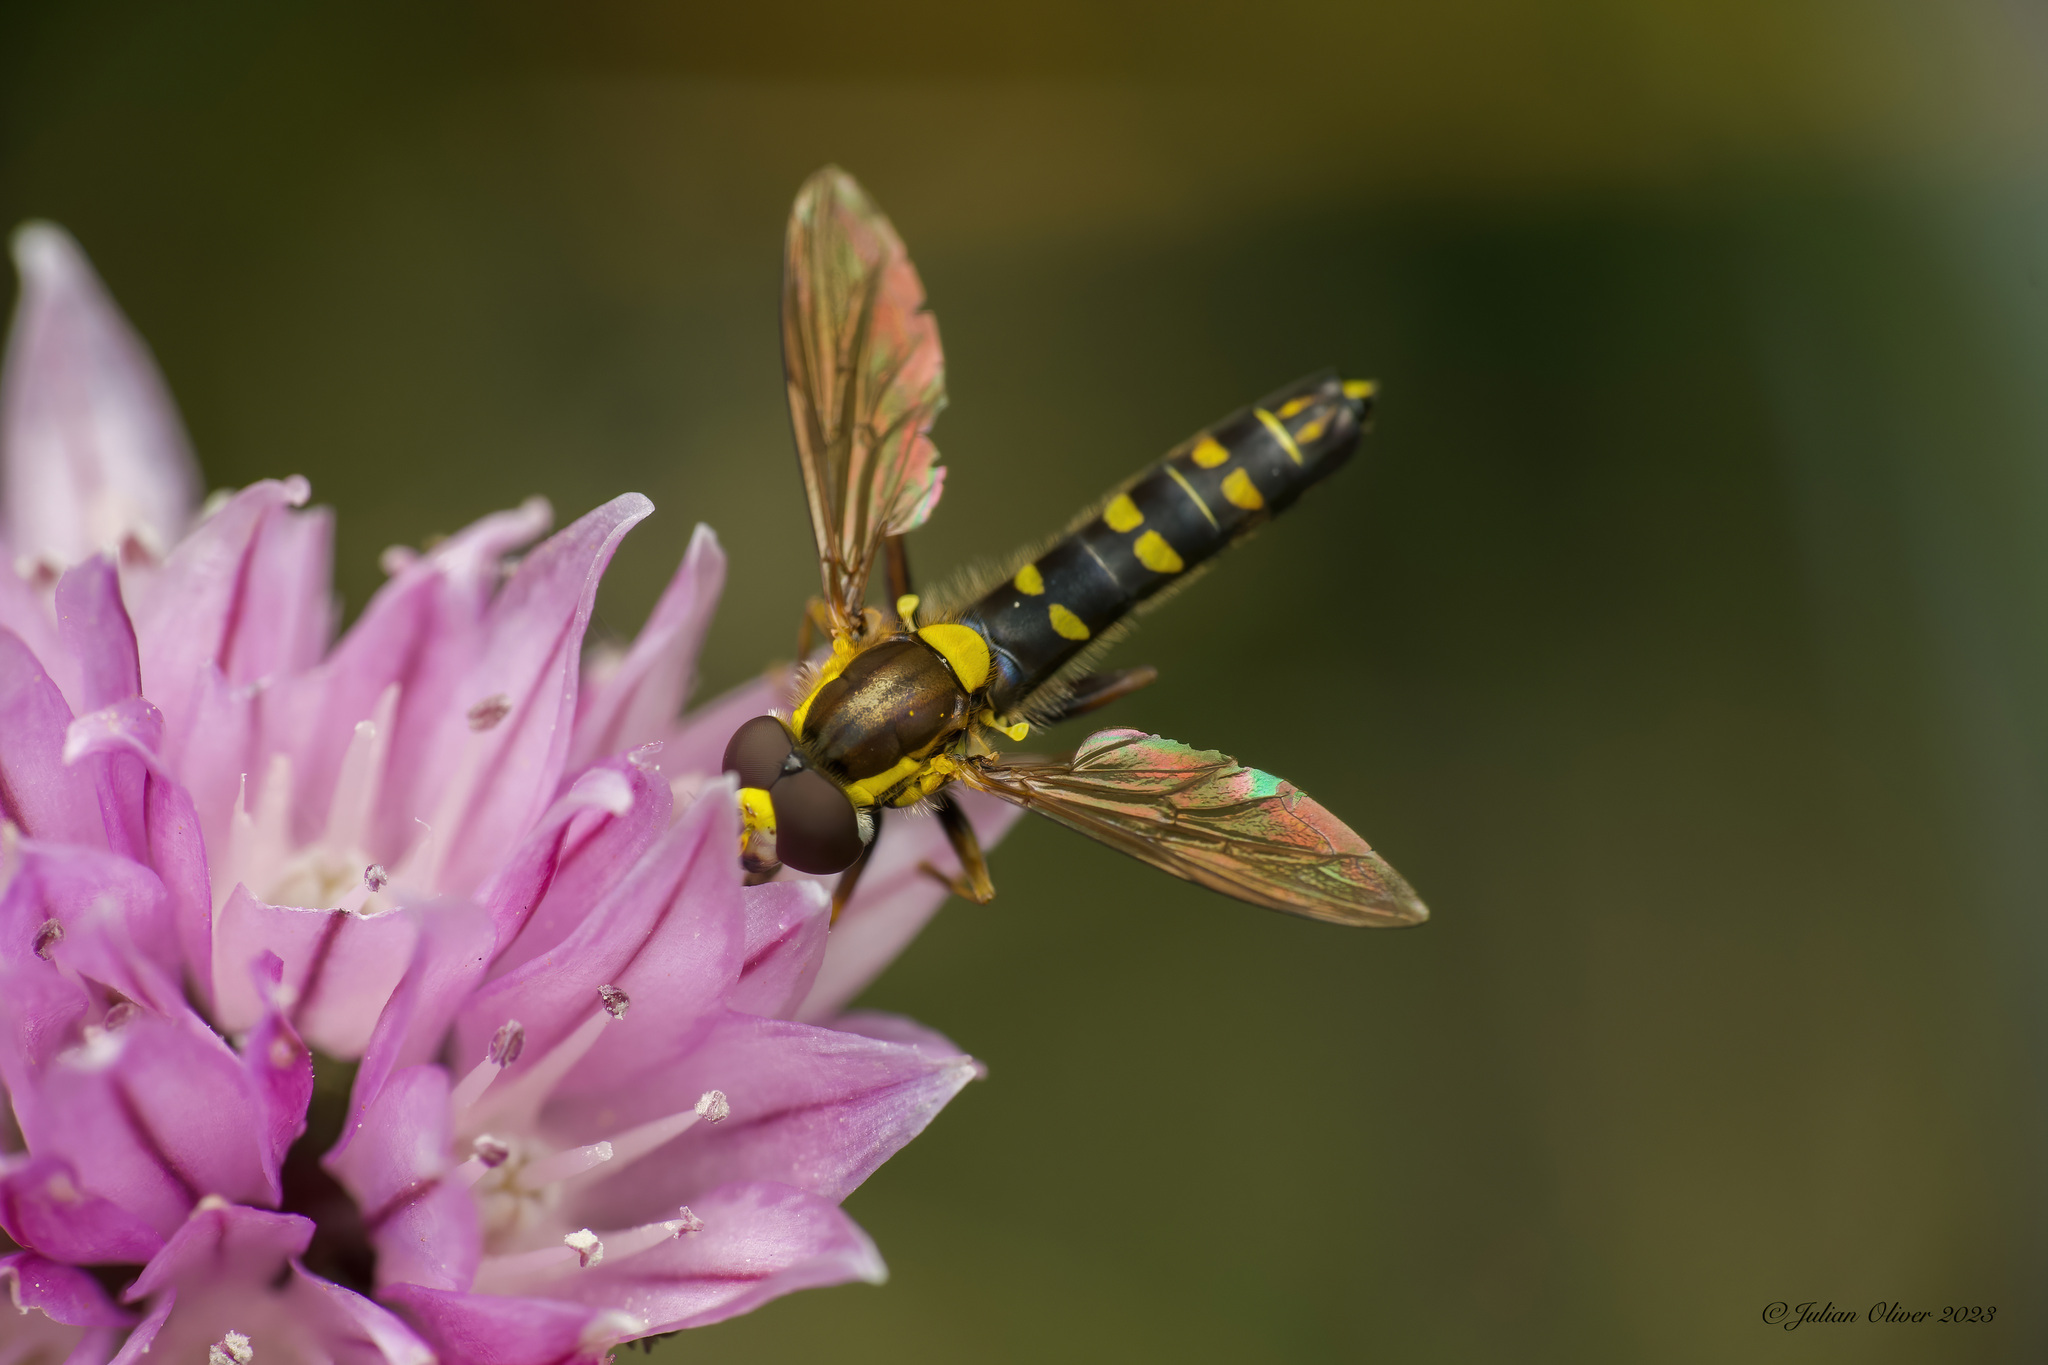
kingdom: Animalia
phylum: Arthropoda
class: Insecta
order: Diptera
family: Syrphidae
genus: Sphaerophoria
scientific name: Sphaerophoria scripta
